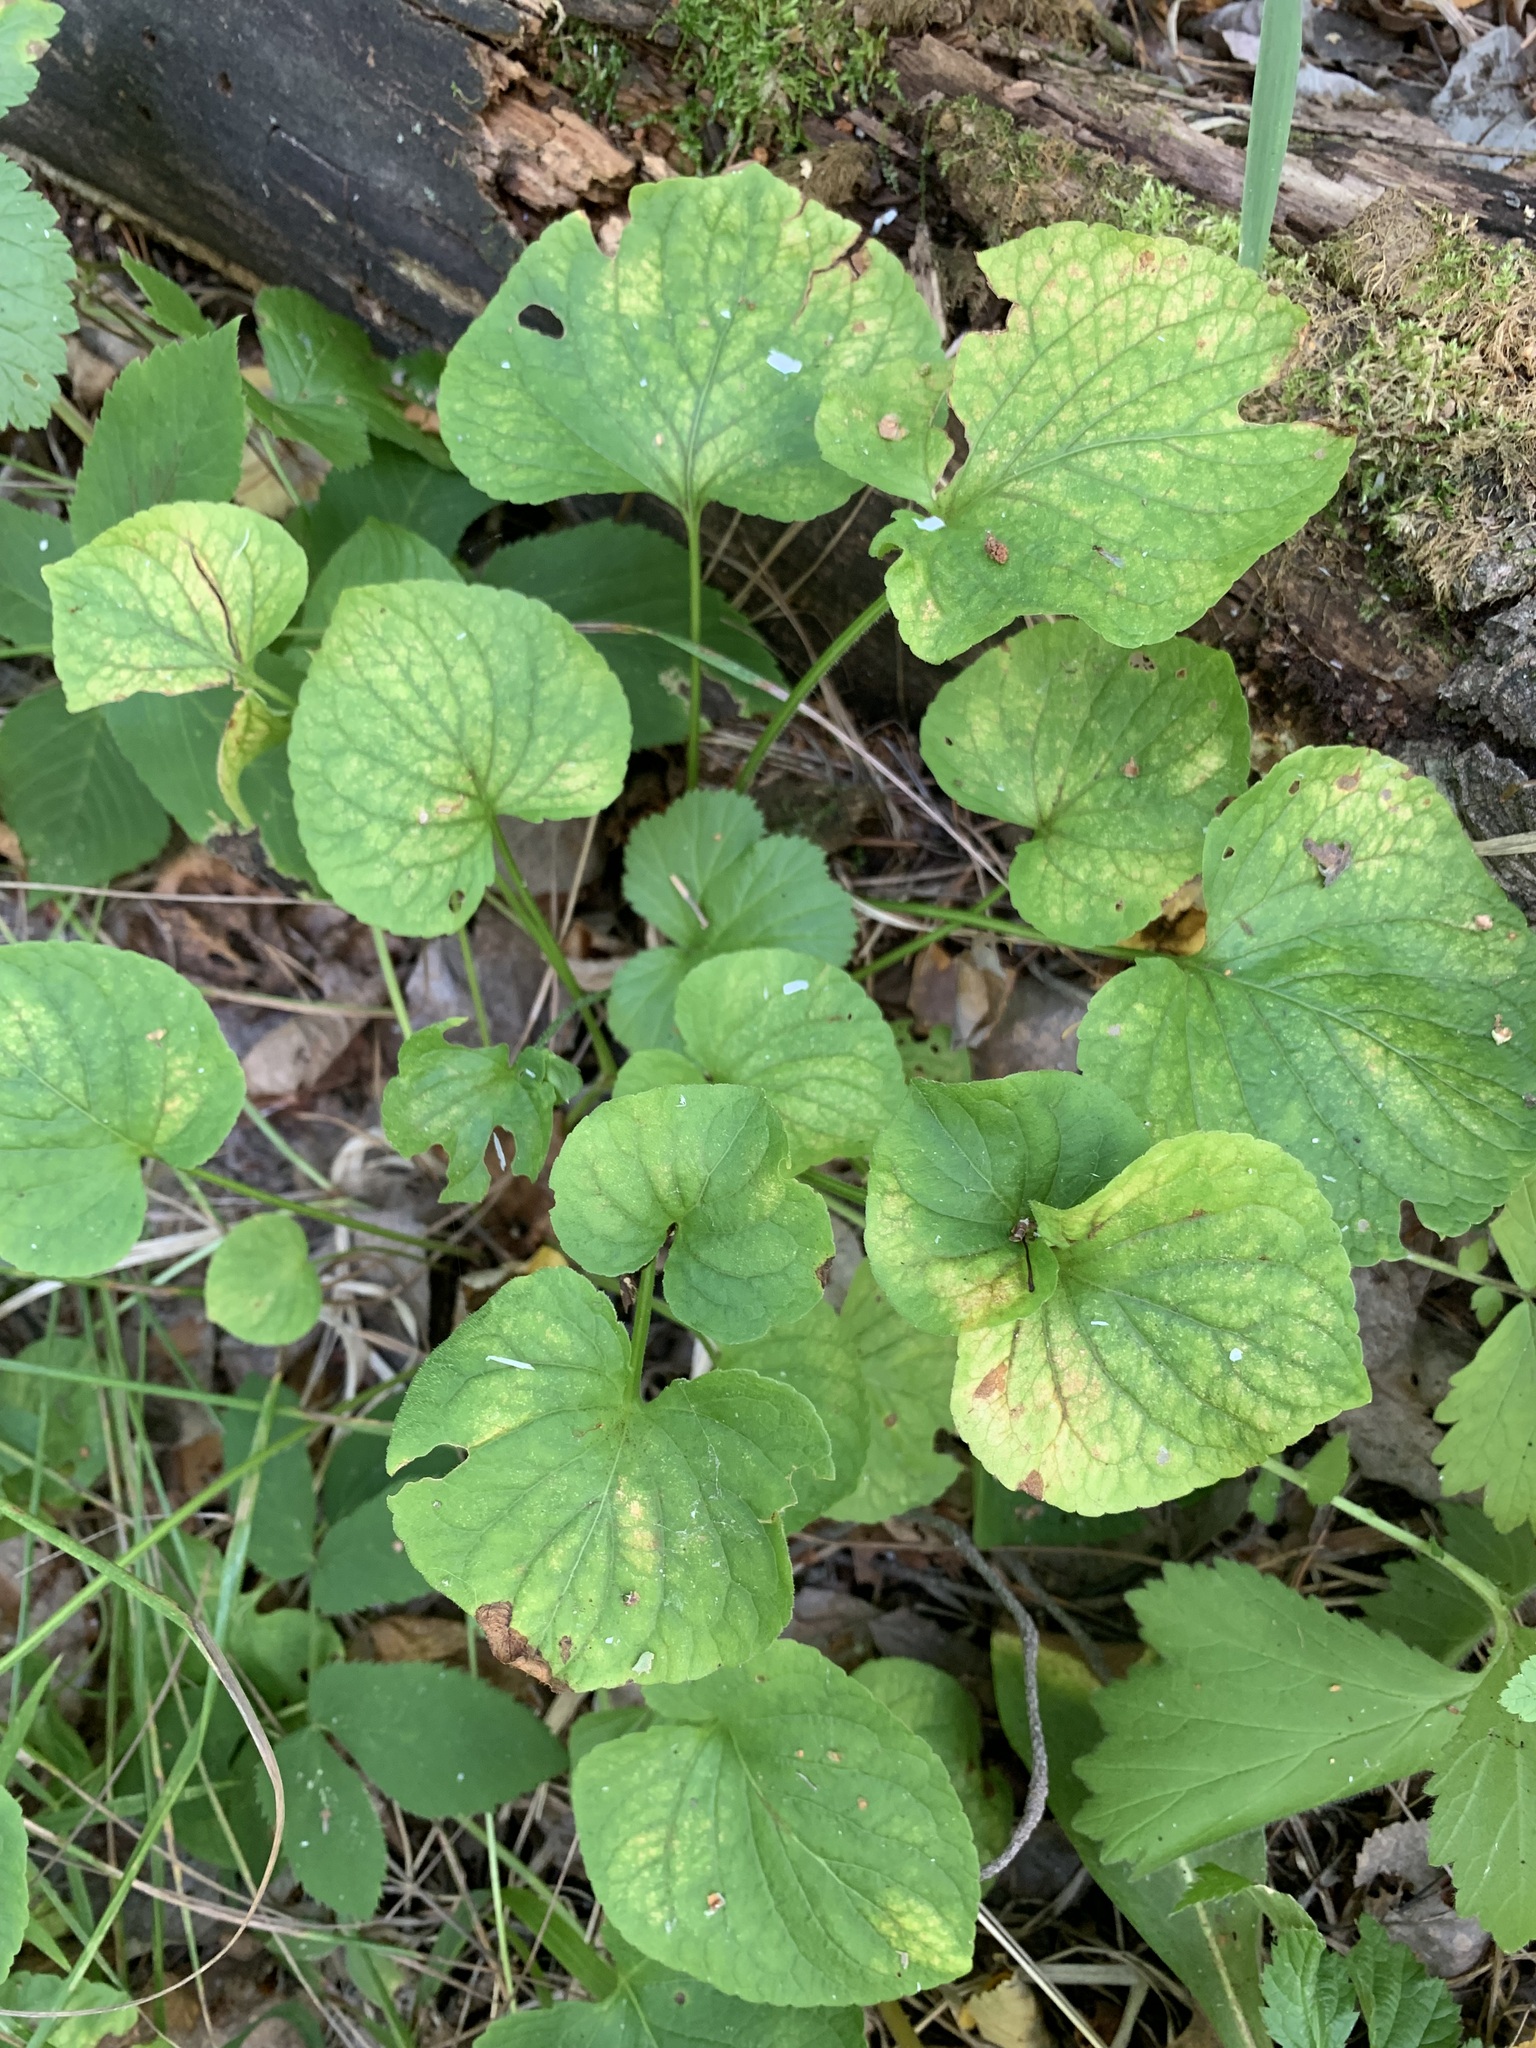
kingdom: Plantae
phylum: Tracheophyta
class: Magnoliopsida
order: Malpighiales
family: Violaceae
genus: Viola
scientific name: Viola mirabilis
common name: Wonder violet
